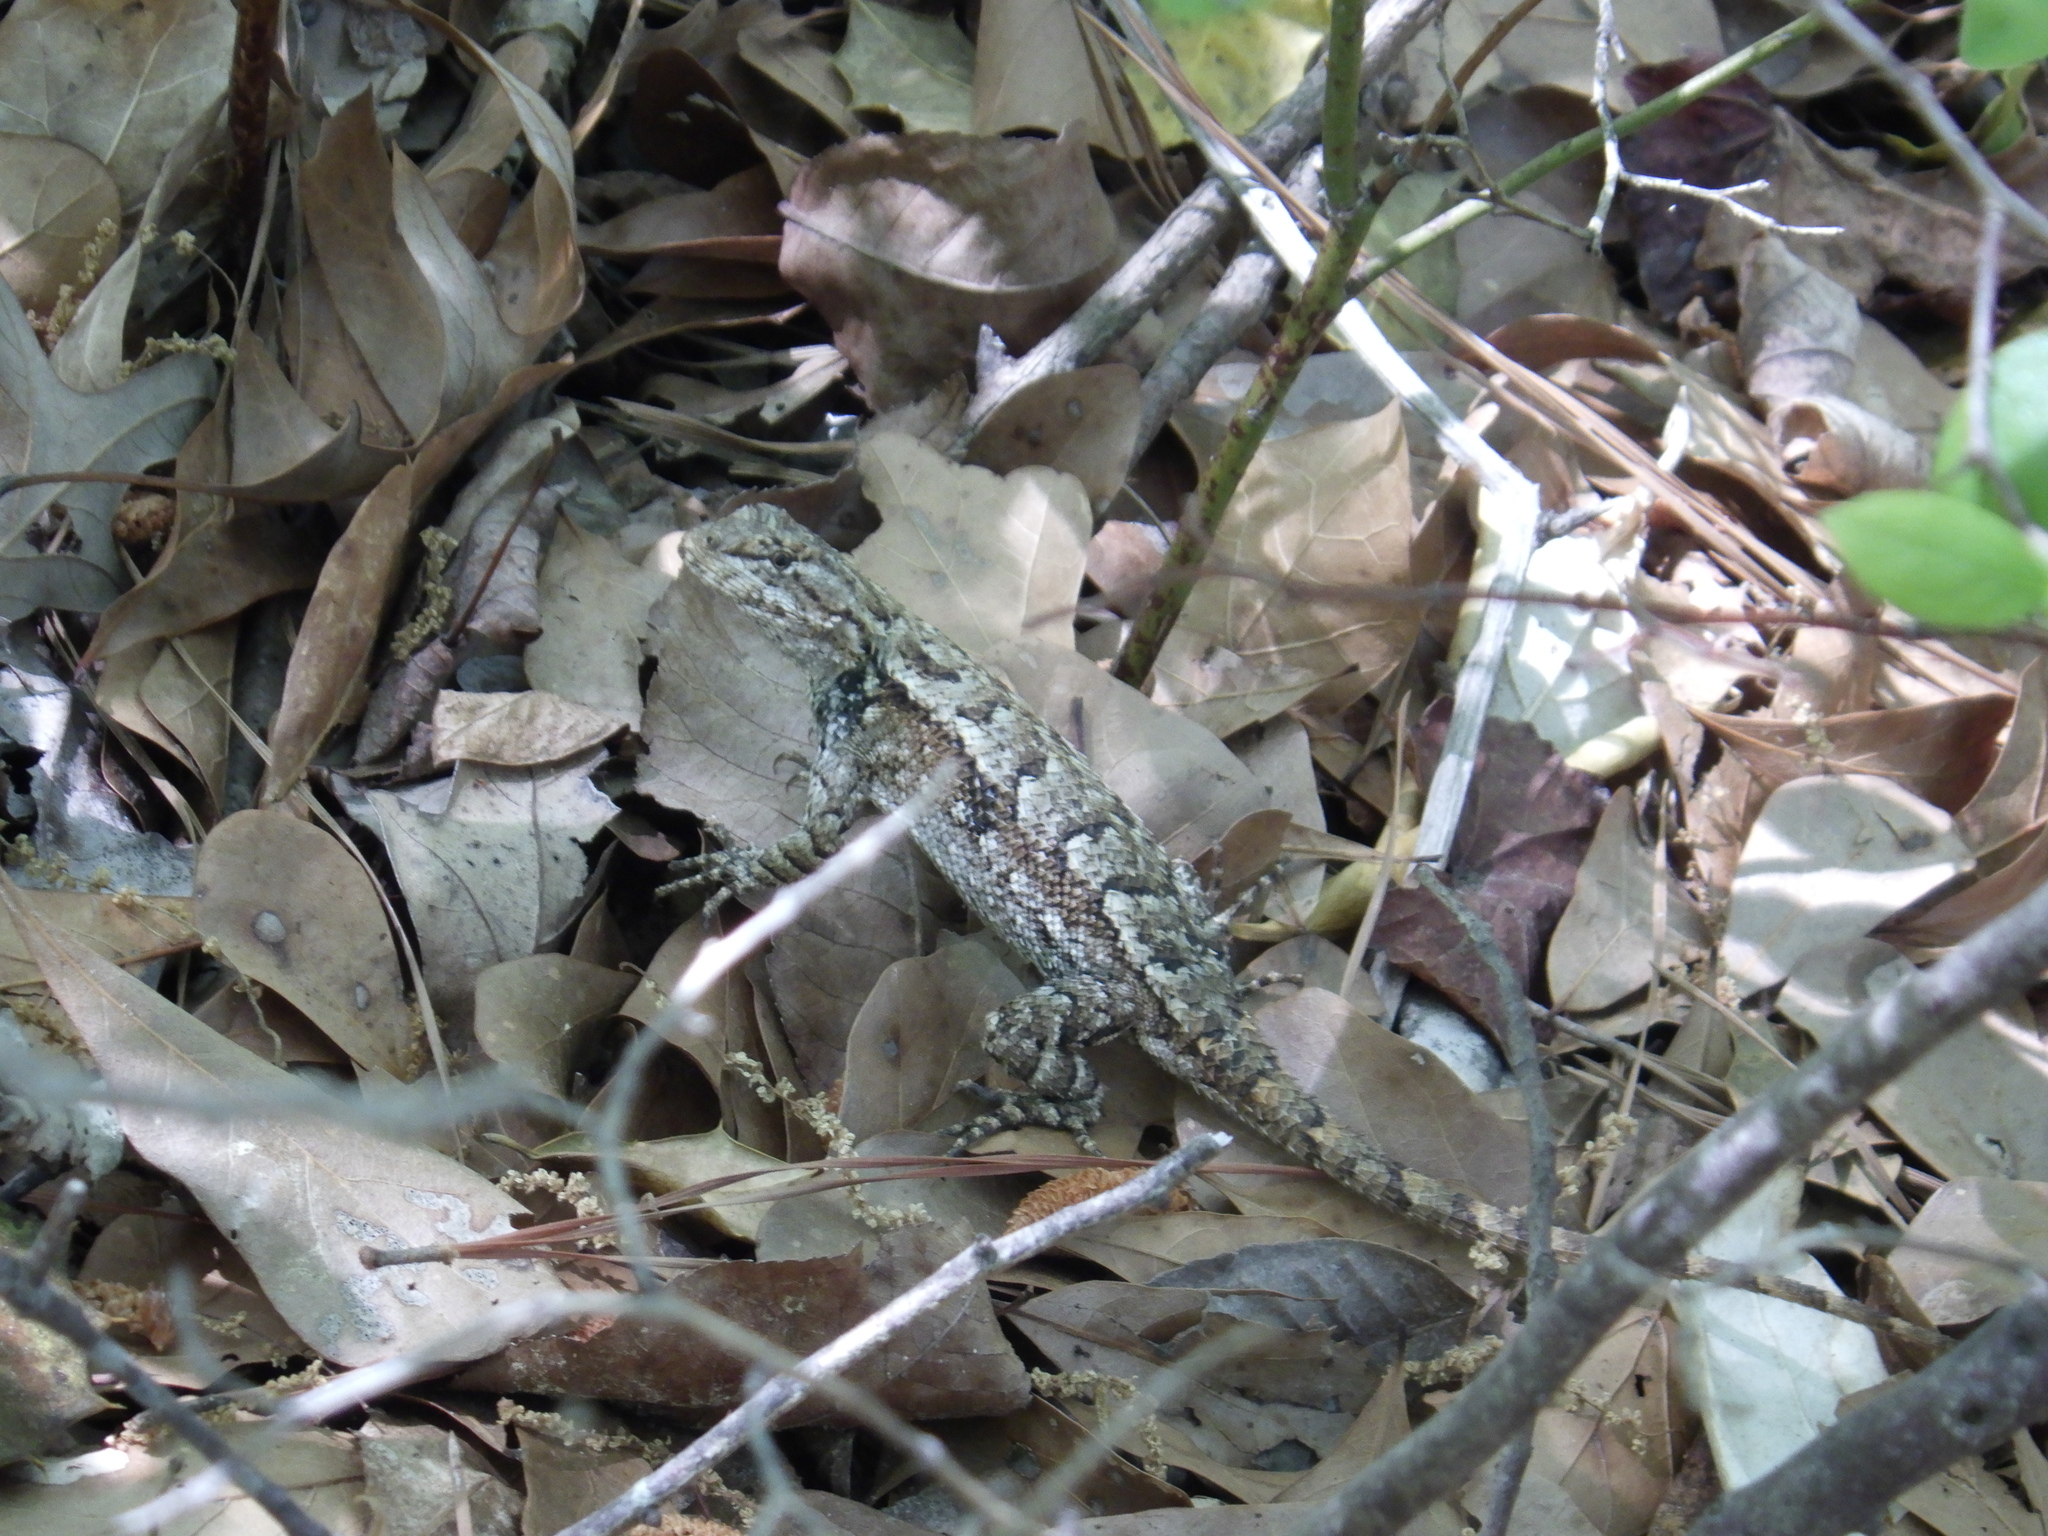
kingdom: Animalia
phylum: Chordata
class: Squamata
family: Phrynosomatidae
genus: Sceloporus
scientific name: Sceloporus undulatus
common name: Eastern fence lizard
